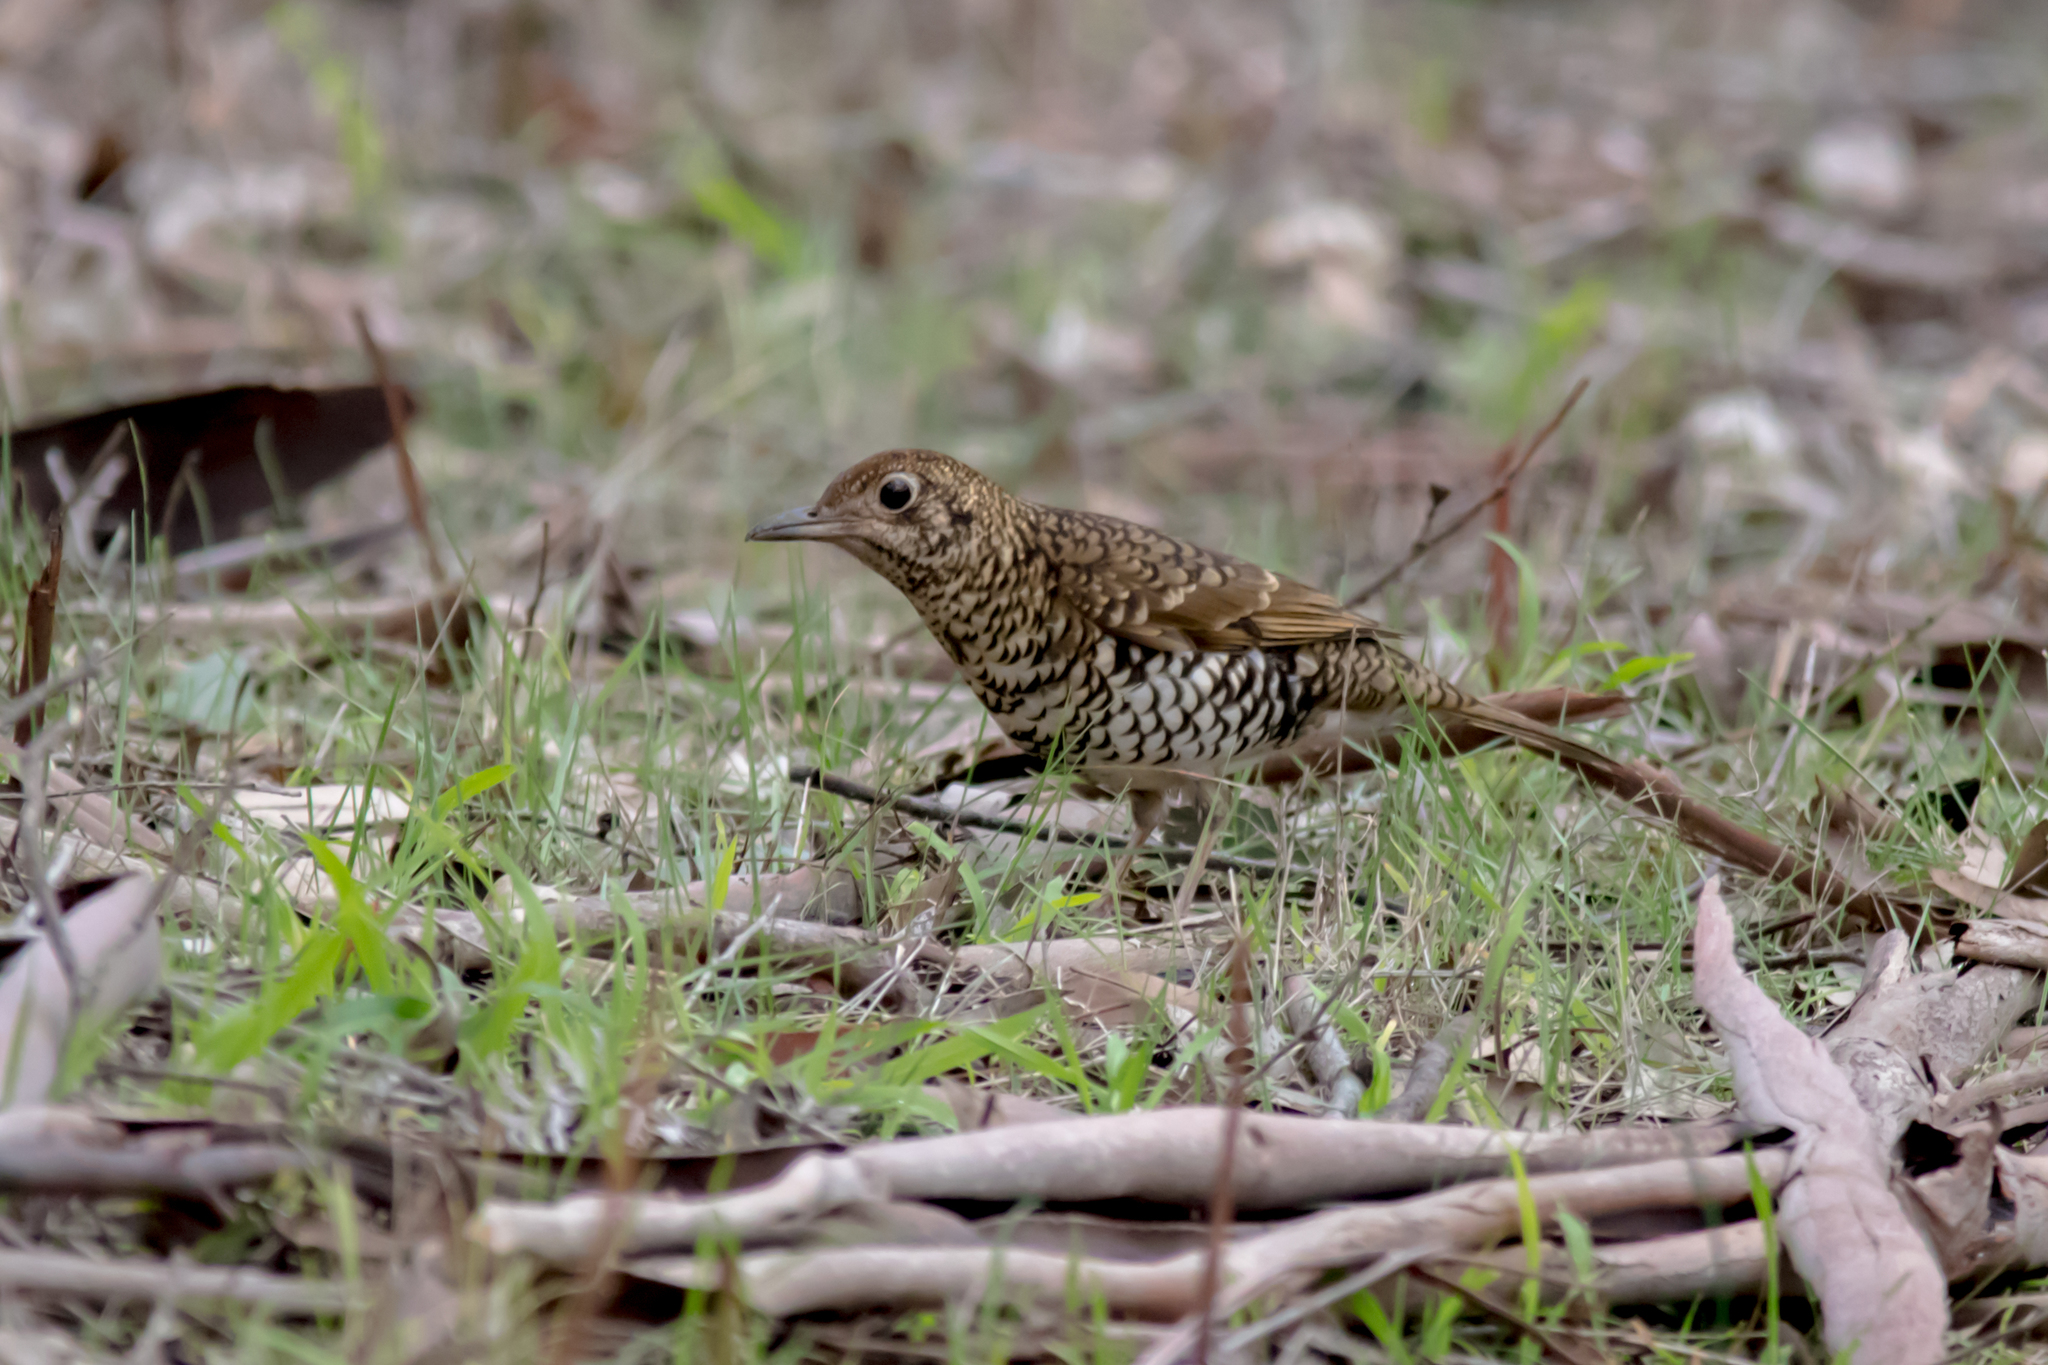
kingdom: Animalia
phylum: Chordata
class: Aves
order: Passeriformes
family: Turdidae
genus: Zoothera
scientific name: Zoothera lunulata
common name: Bassian thrush
